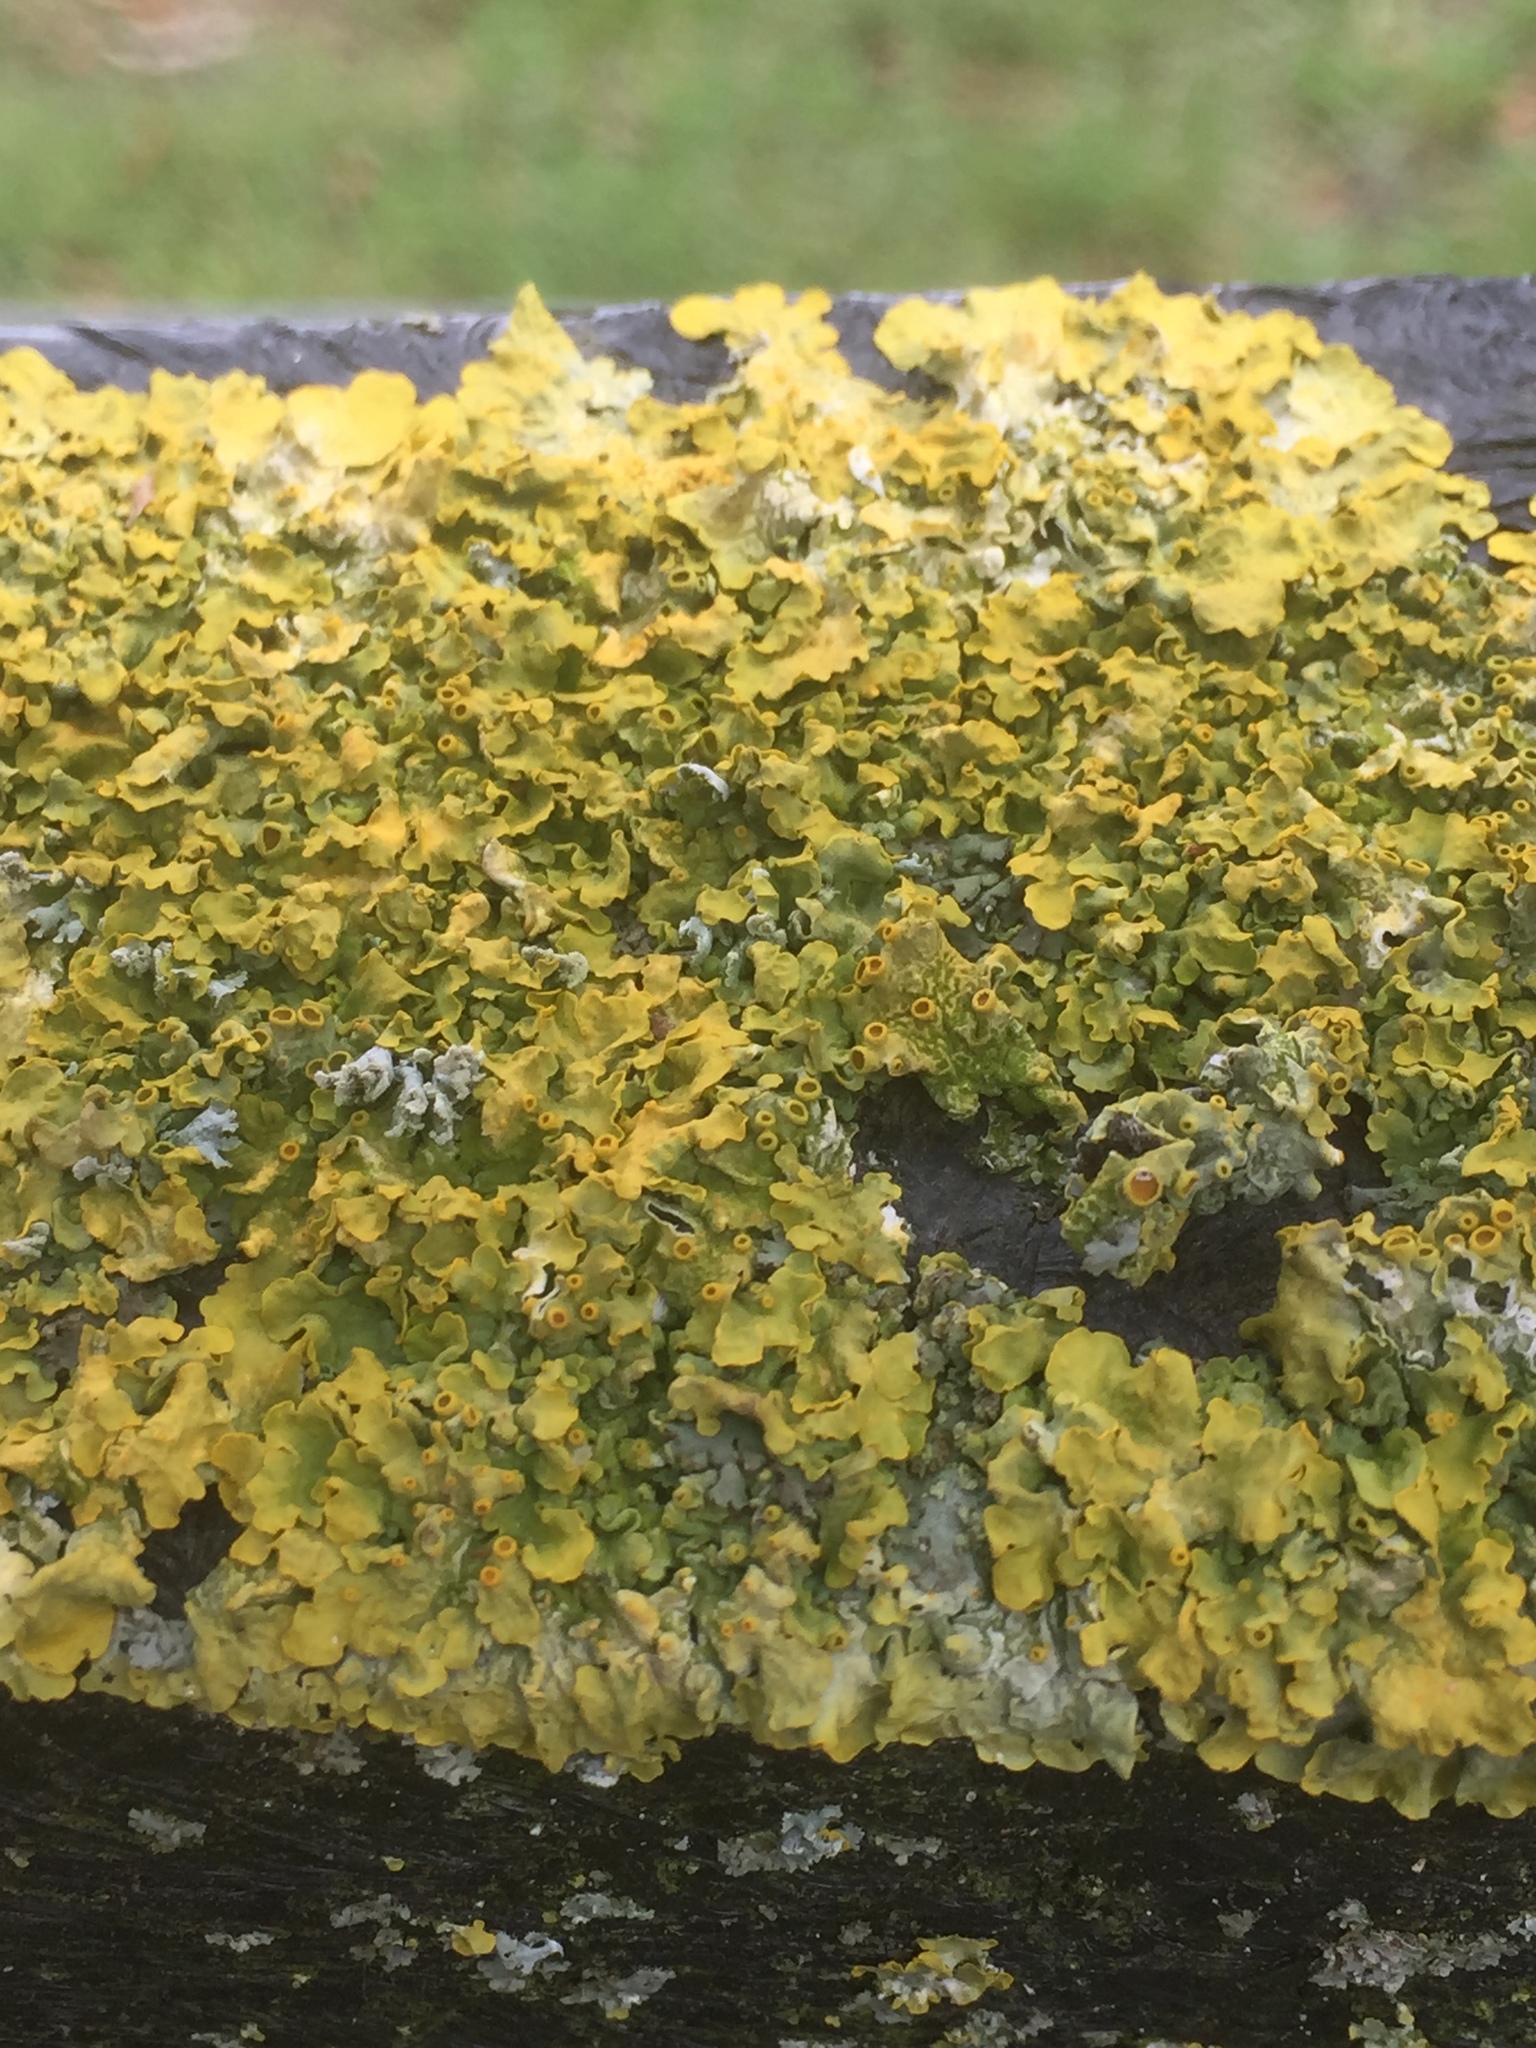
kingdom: Fungi
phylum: Ascomycota
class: Lecanoromycetes
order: Teloschistales
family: Teloschistaceae
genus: Xanthoria
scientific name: Xanthoria parietina
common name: Common orange lichen
